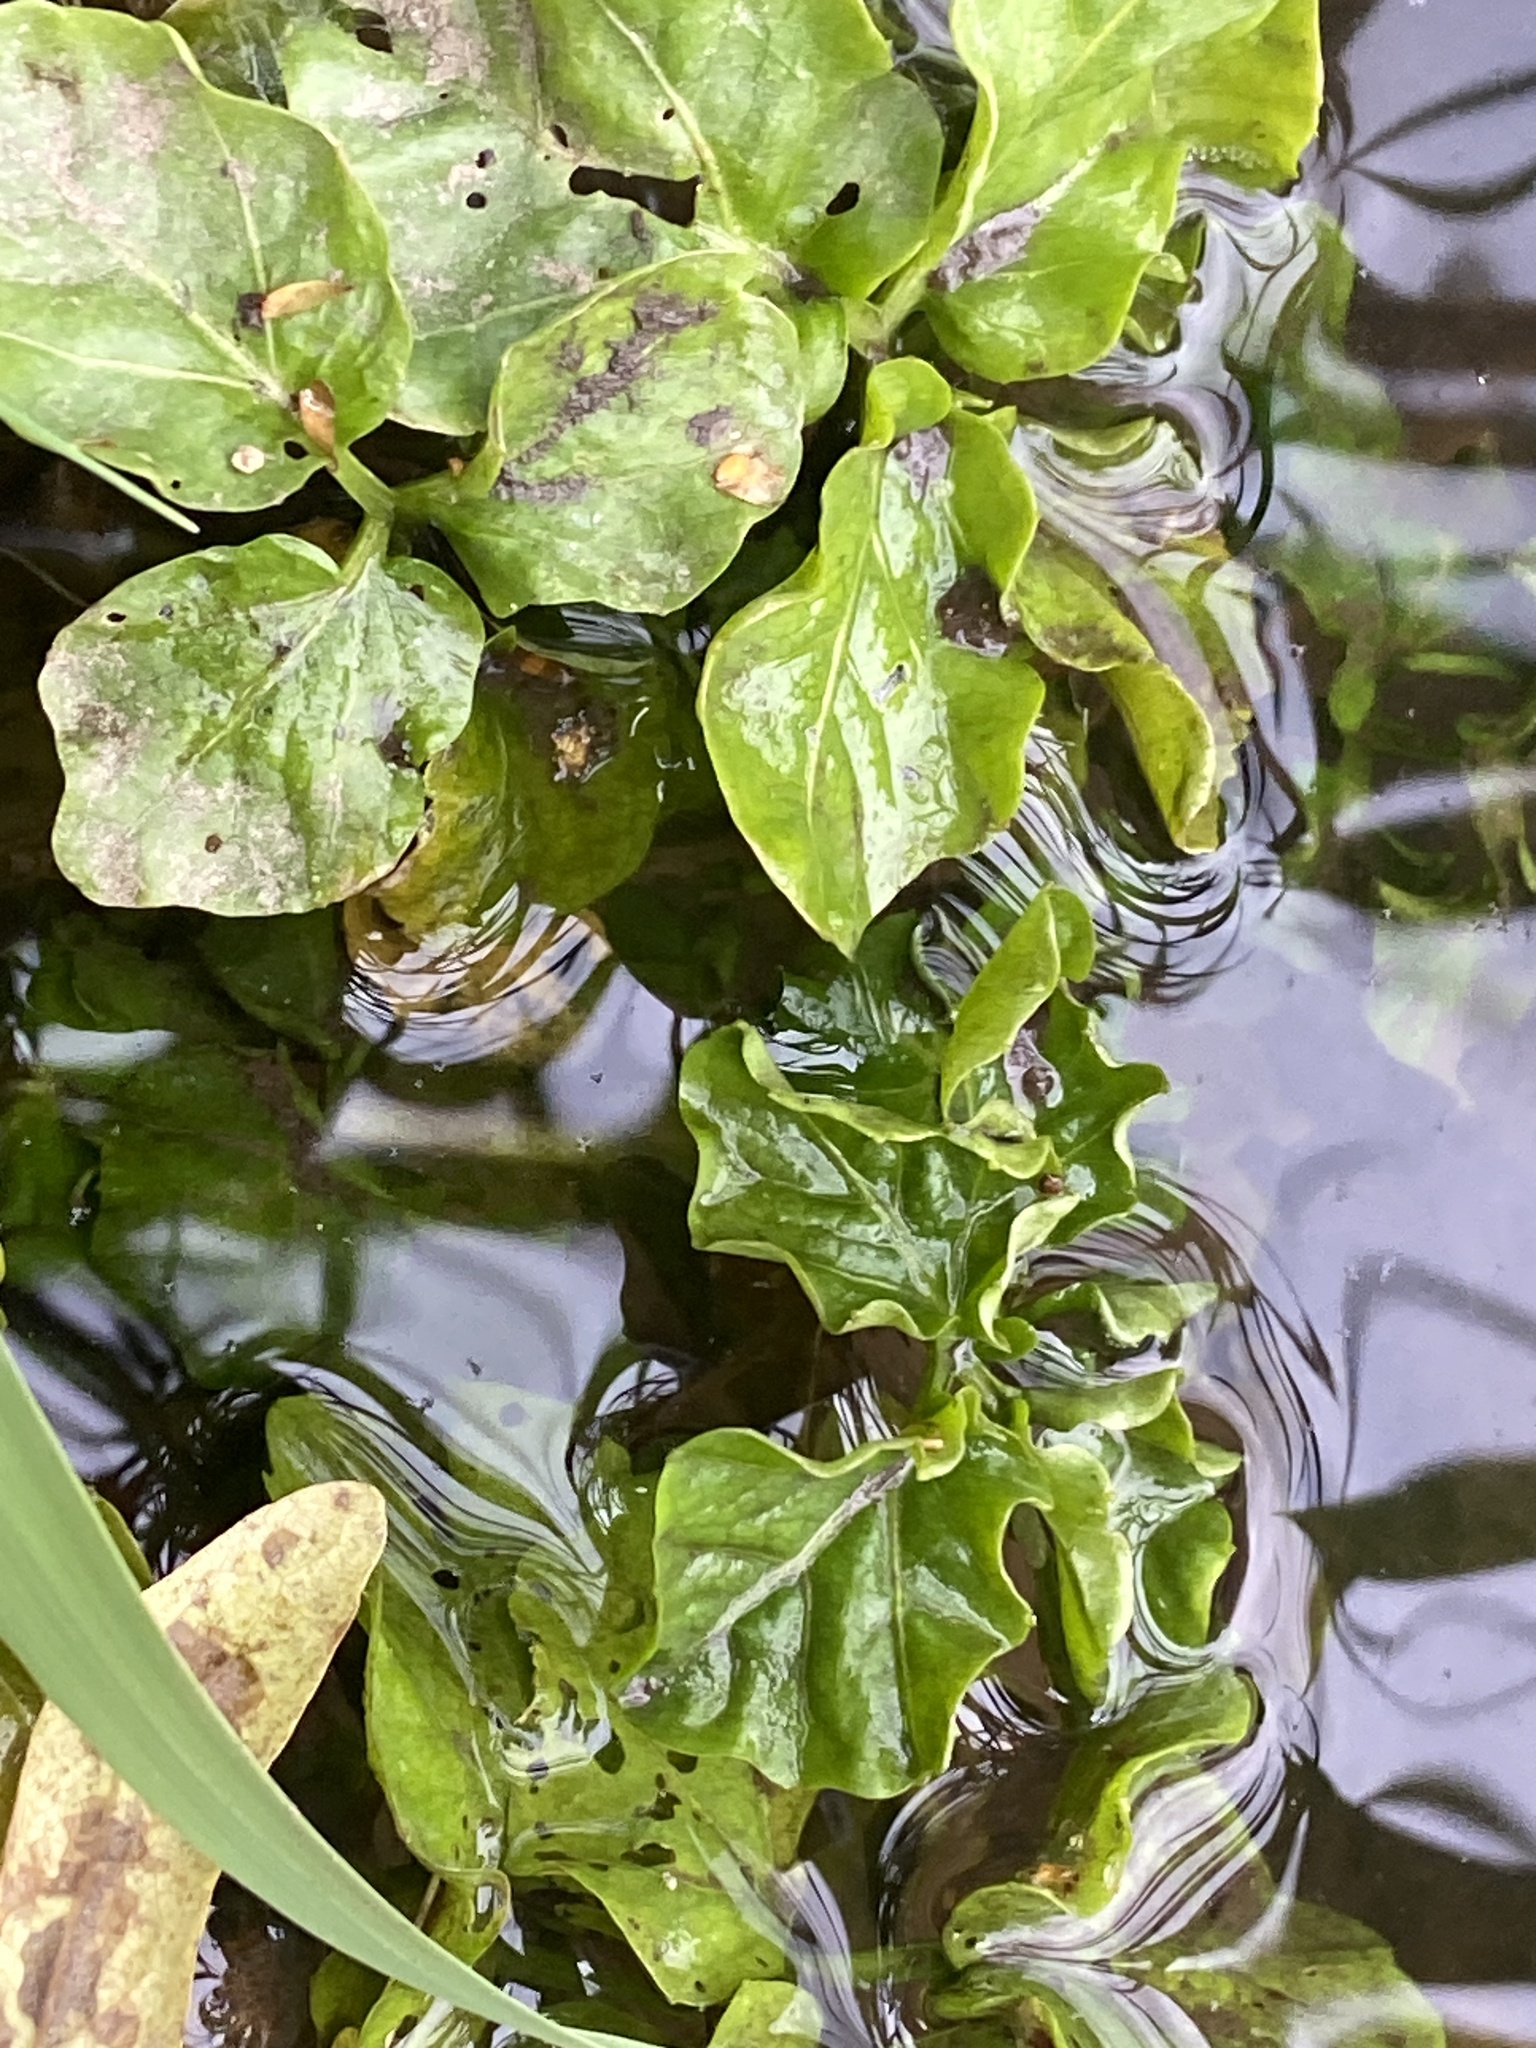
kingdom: Plantae
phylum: Tracheophyta
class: Magnoliopsida
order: Brassicales
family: Brassicaceae
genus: Nasturtium
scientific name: Nasturtium officinale
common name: Watercress
